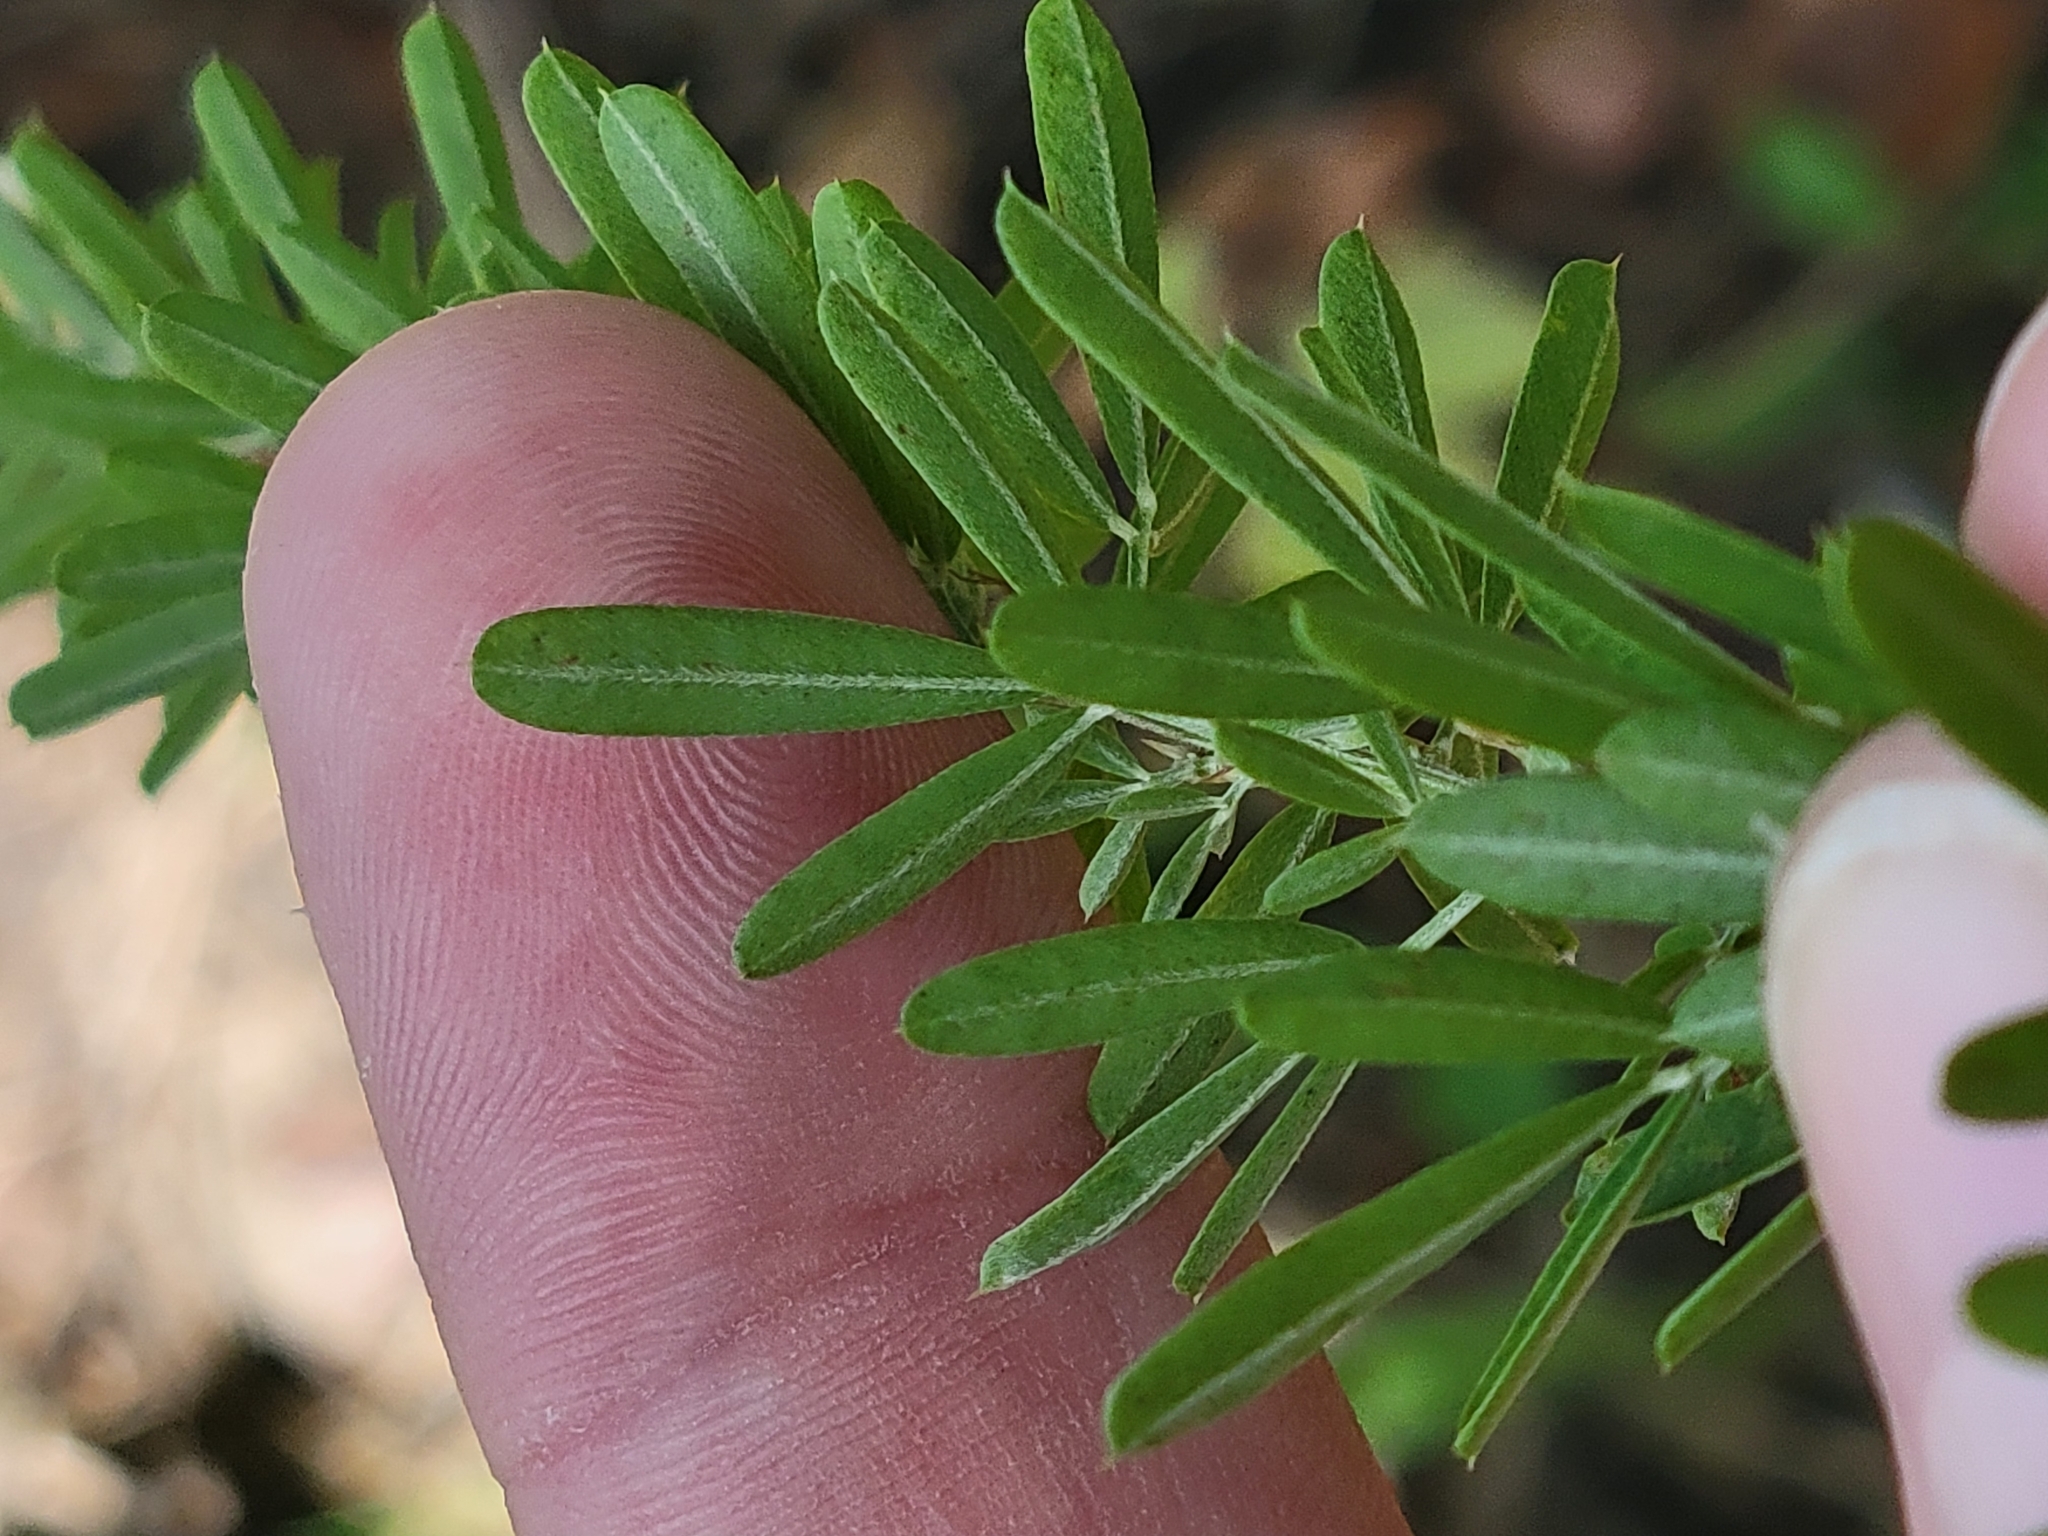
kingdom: Plantae
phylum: Tracheophyta
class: Magnoliopsida
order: Fabales
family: Fabaceae
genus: Lespedeza
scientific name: Lespedeza cuneata
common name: Chinese bush-clover
